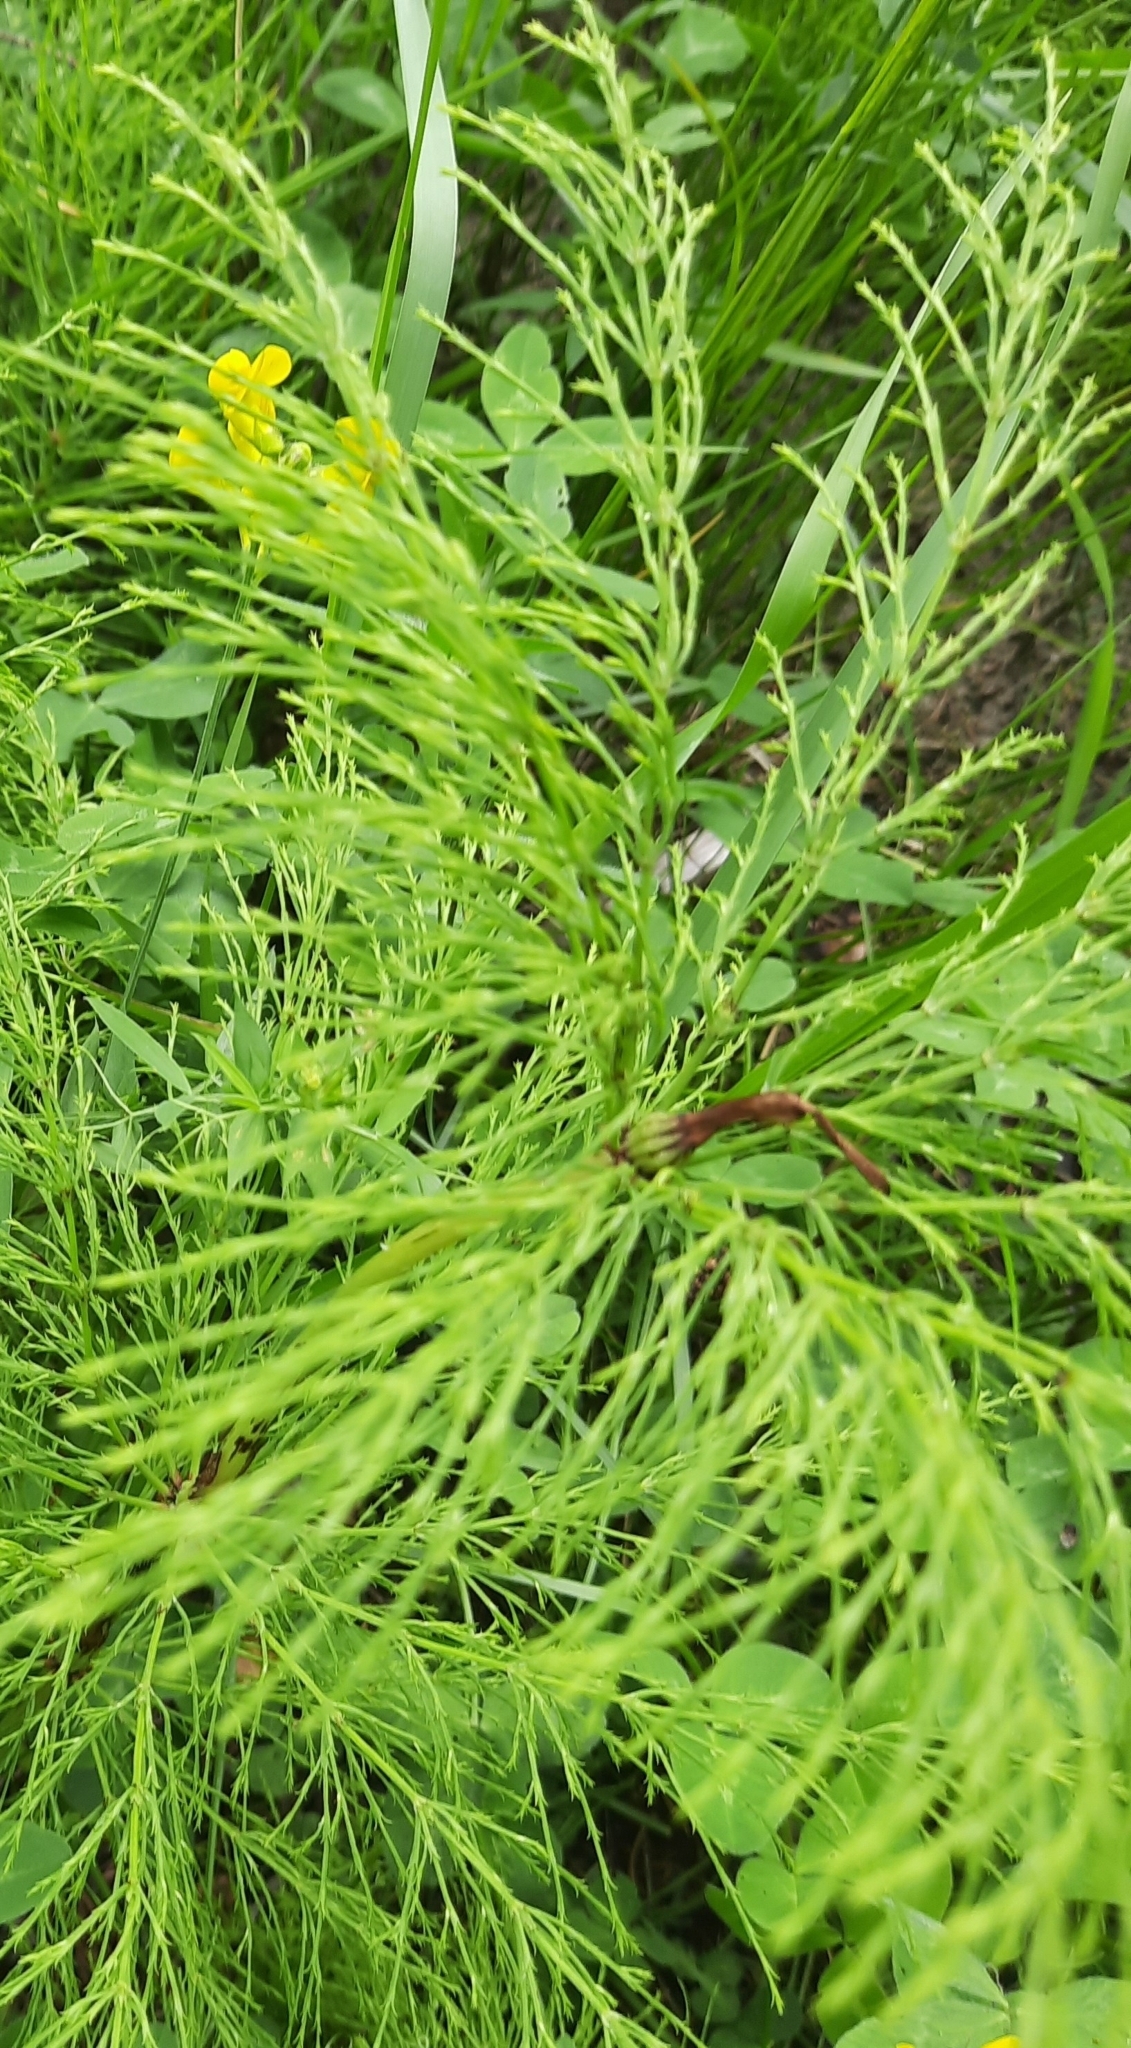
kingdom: Plantae
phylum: Tracheophyta
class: Polypodiopsida
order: Equisetales
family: Equisetaceae
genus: Equisetum
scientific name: Equisetum sylvaticum
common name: Wood horsetail
